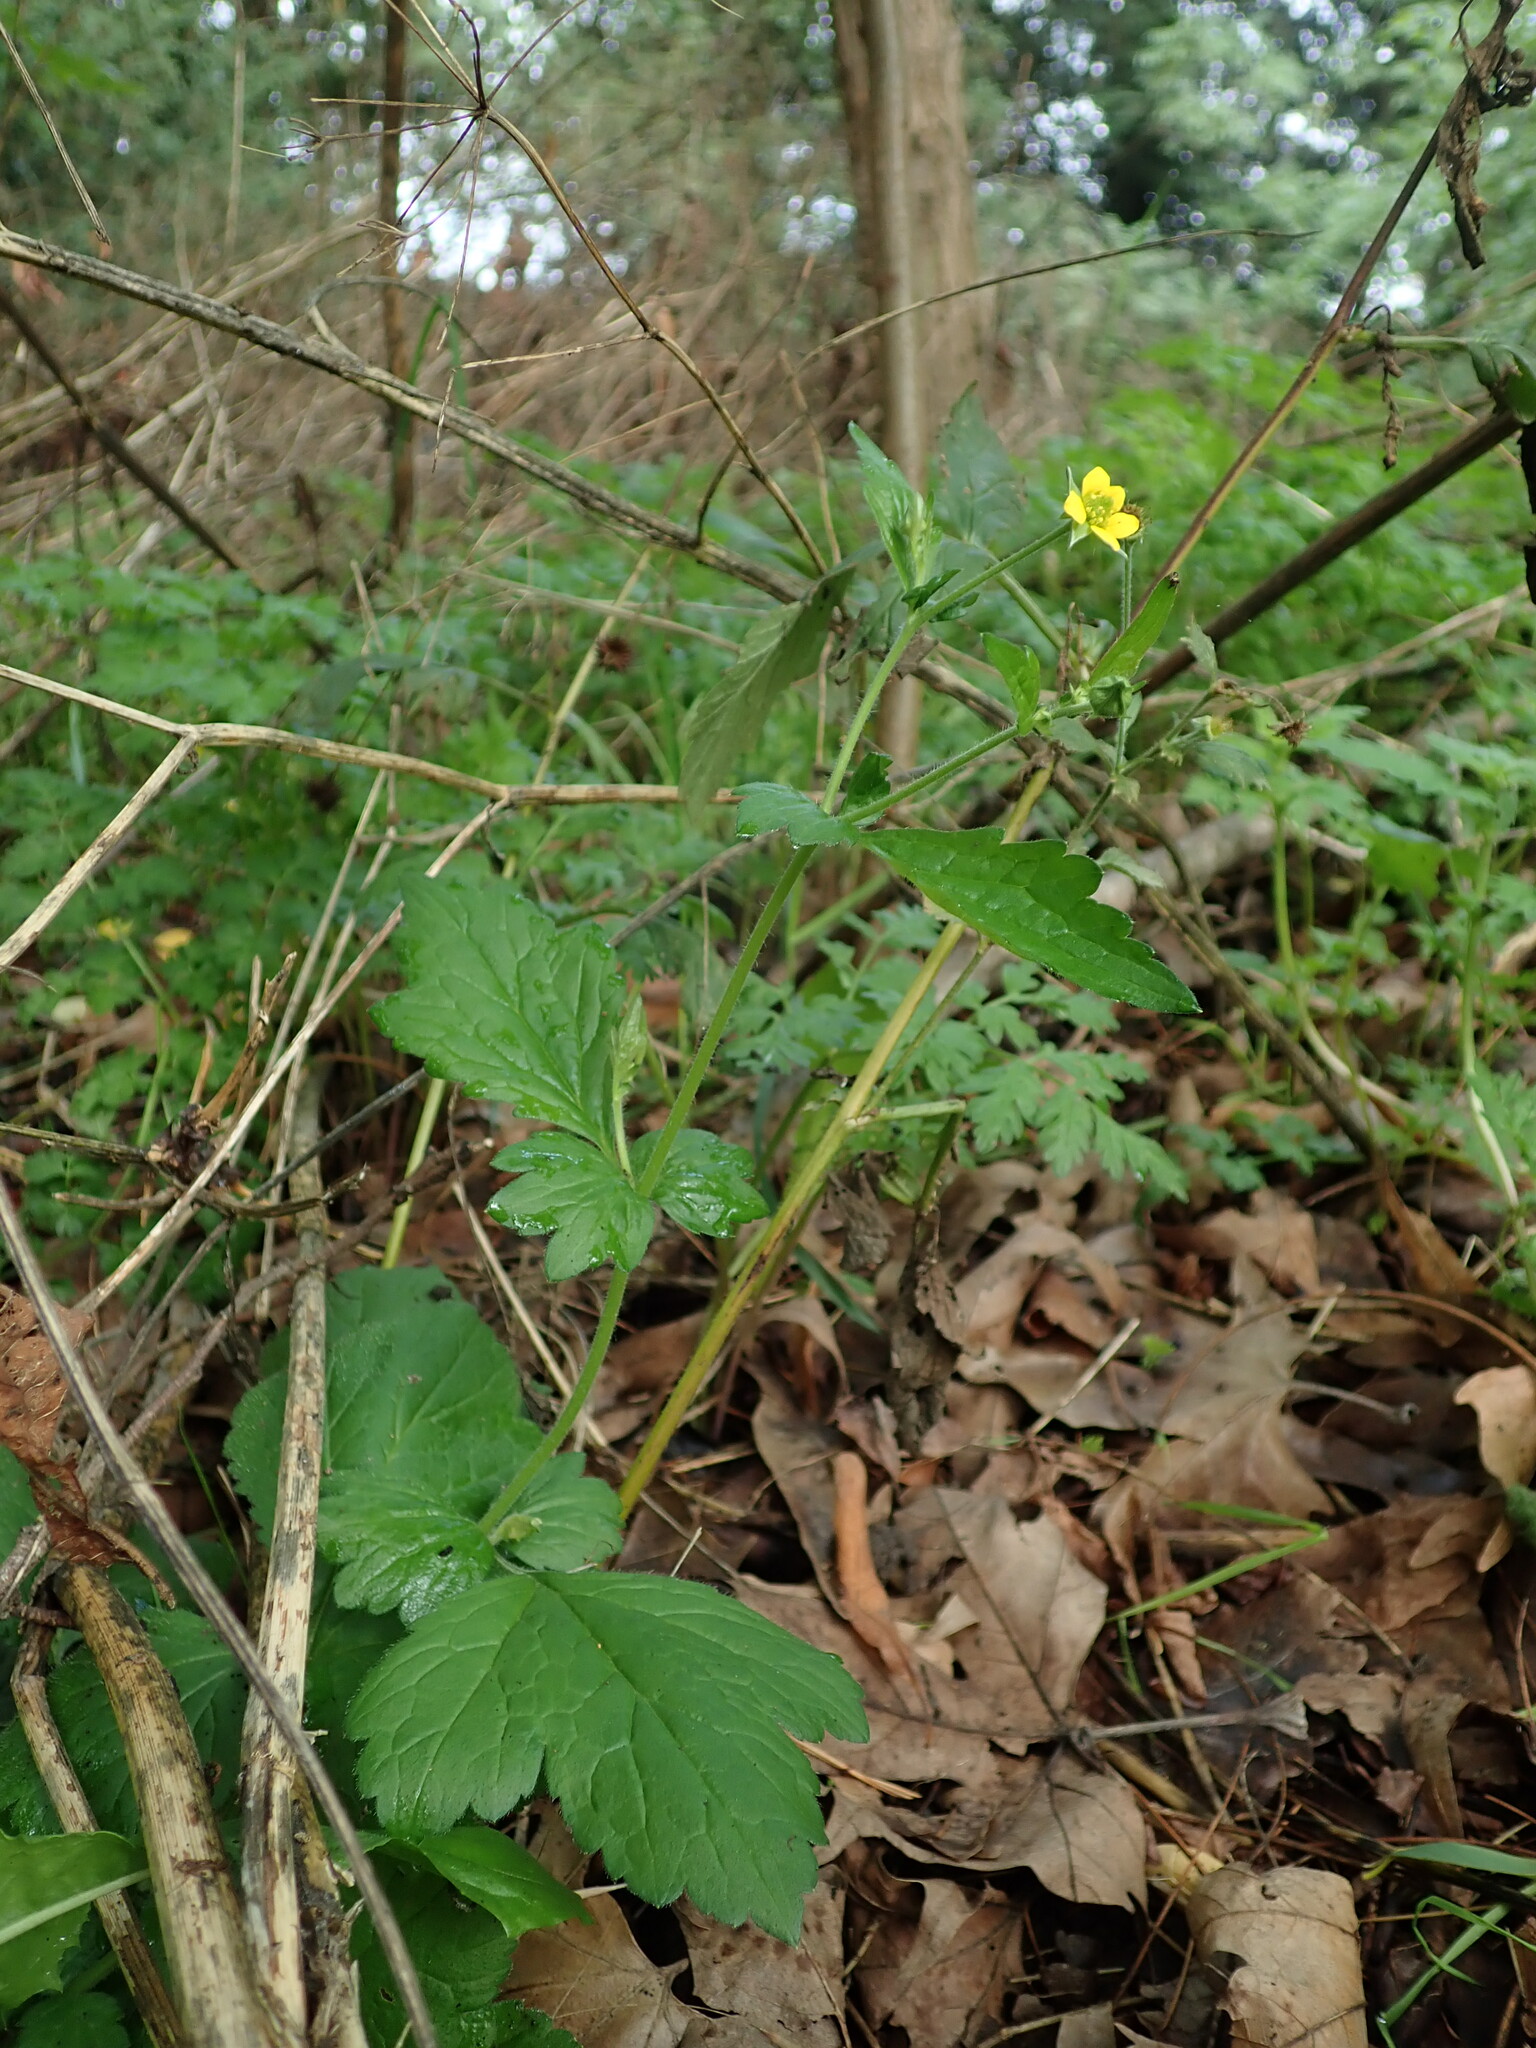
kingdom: Plantae
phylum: Tracheophyta
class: Magnoliopsida
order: Rosales
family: Rosaceae
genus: Geum
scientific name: Geum urbanum
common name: Wood avens
